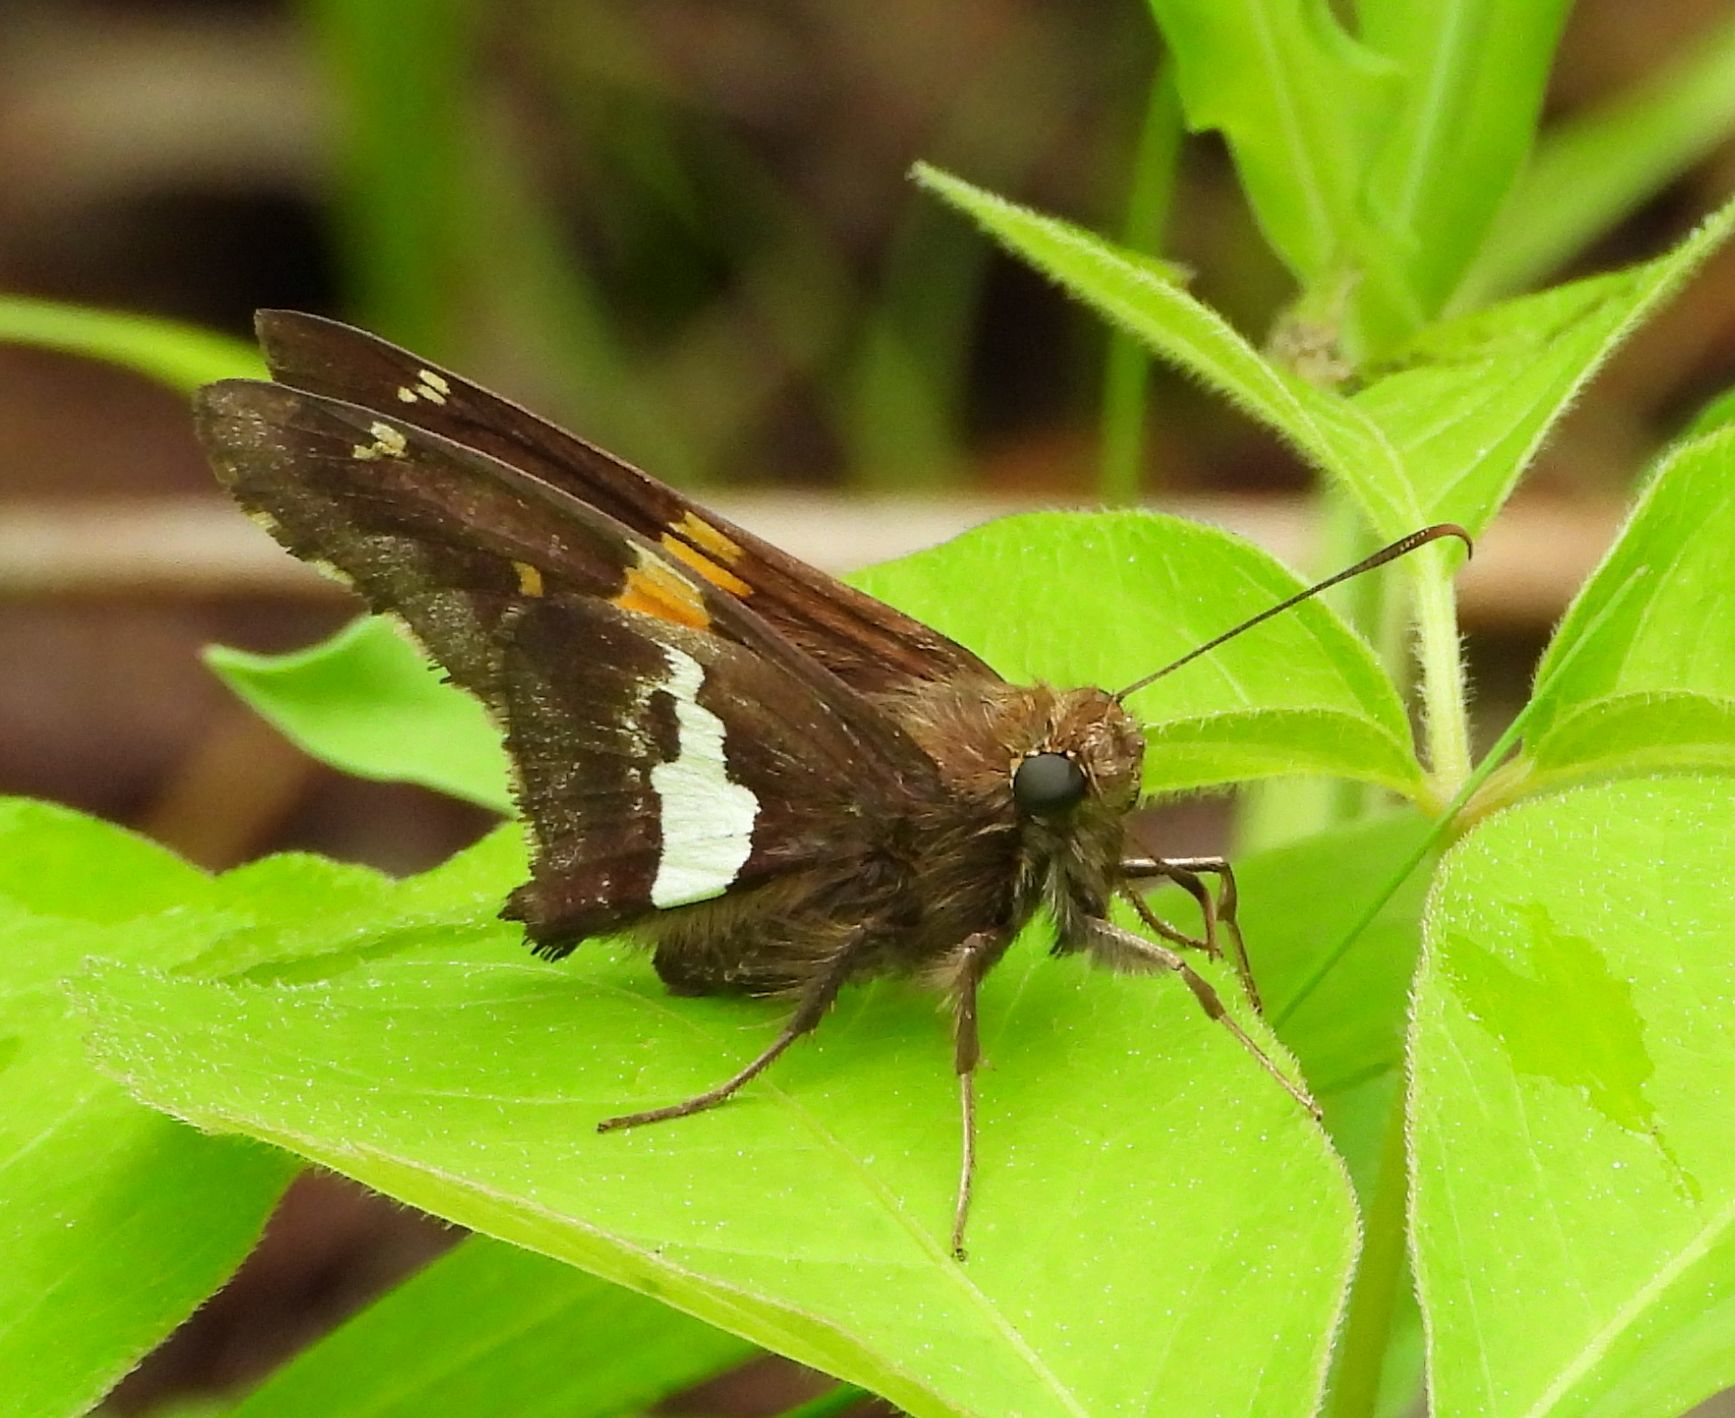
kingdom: Animalia
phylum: Arthropoda
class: Insecta
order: Lepidoptera
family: Hesperiidae
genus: Epargyreus
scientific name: Epargyreus clarus
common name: Silver-spotted skipper
